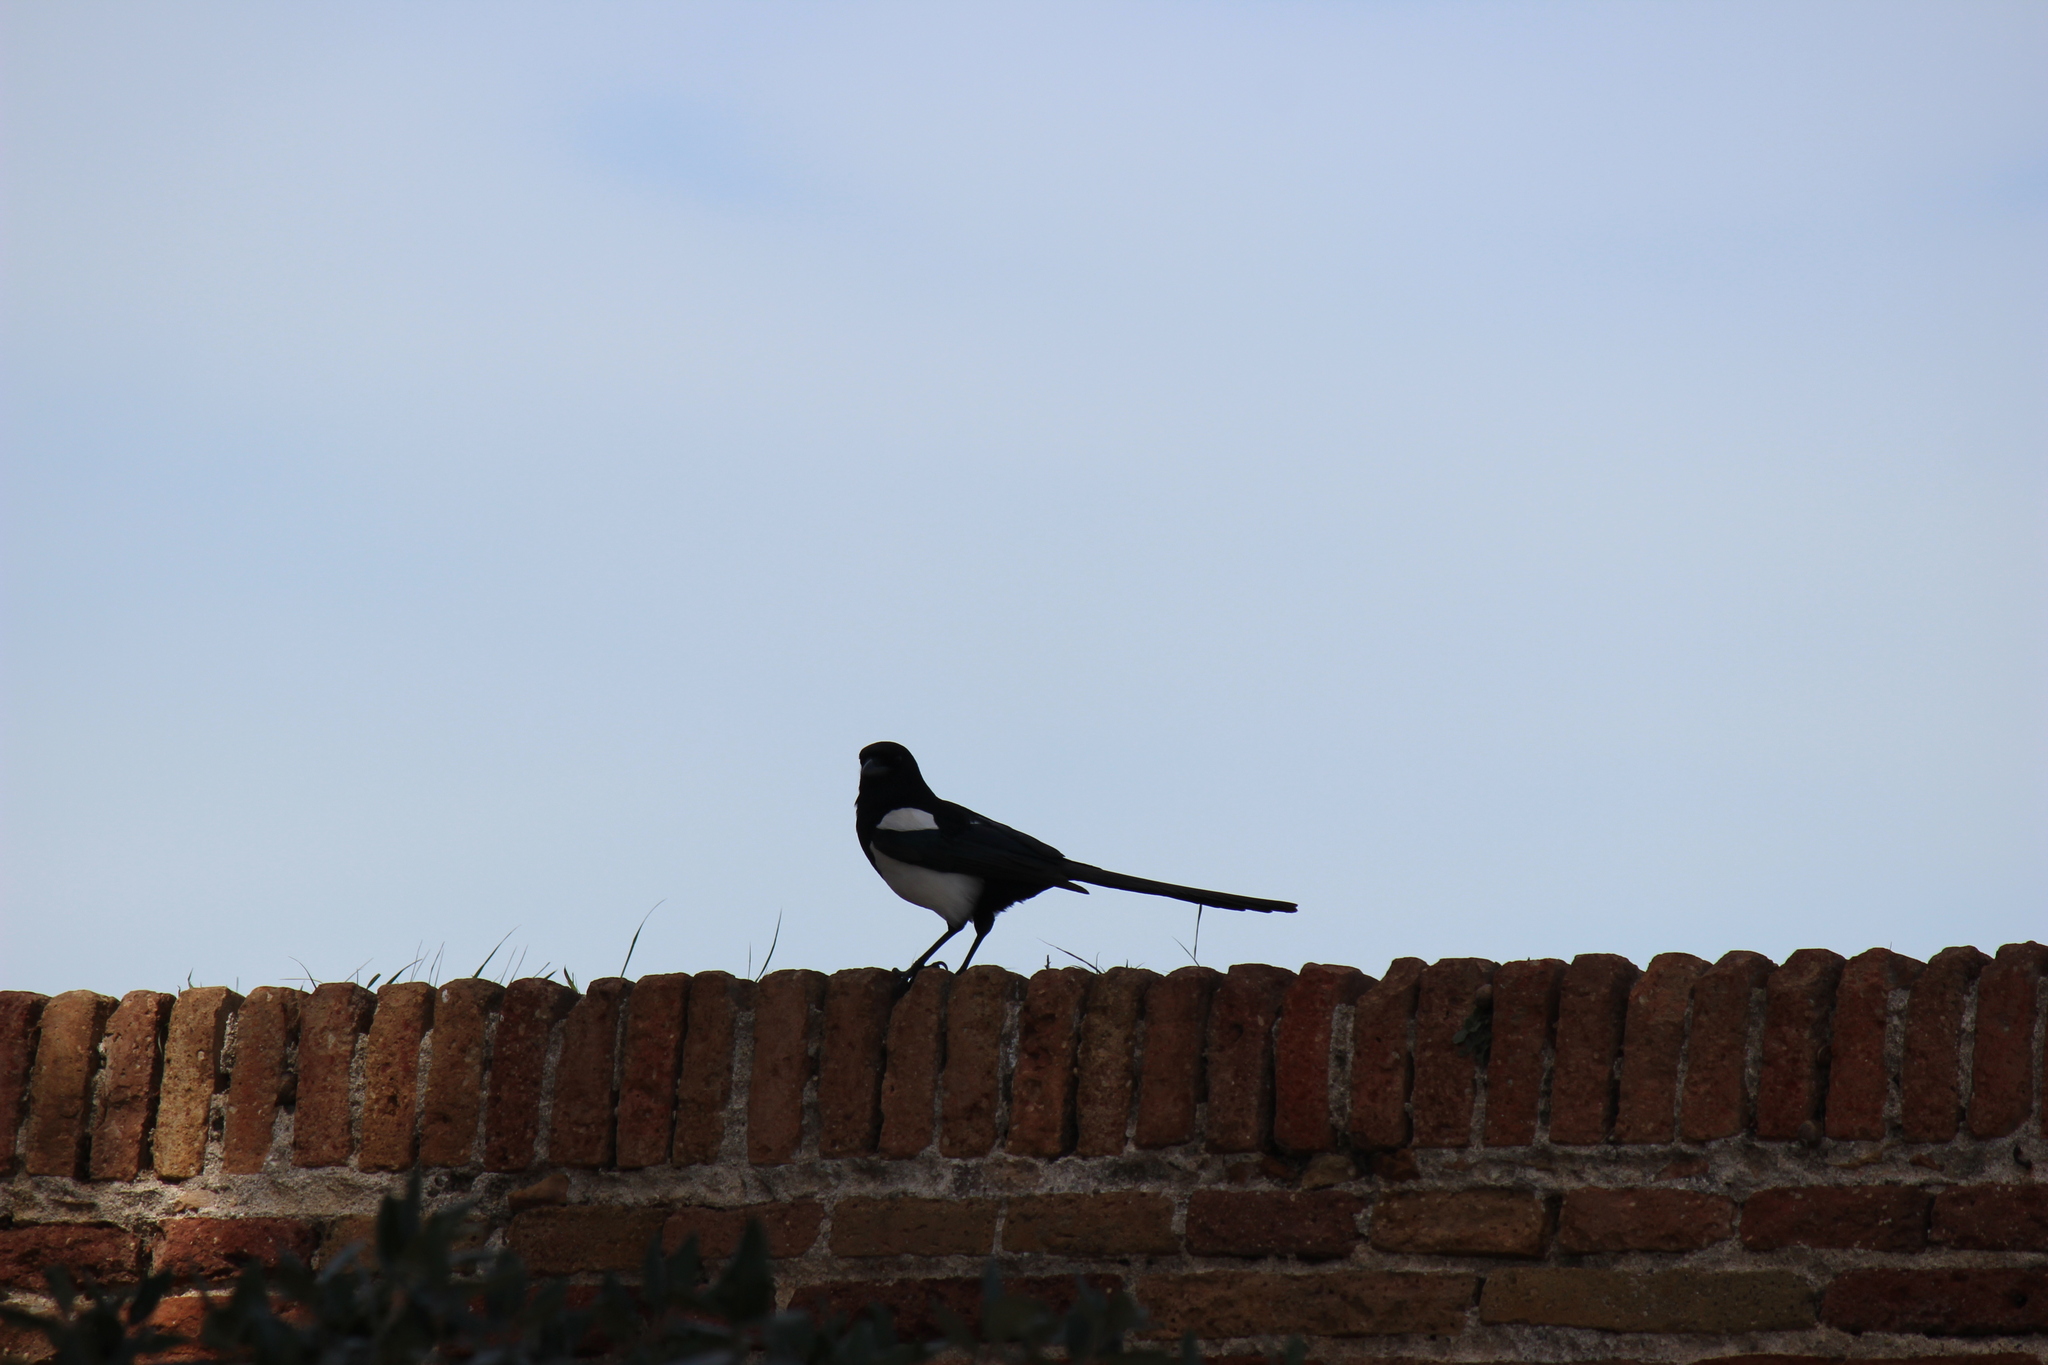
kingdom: Animalia
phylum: Chordata
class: Aves
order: Passeriformes
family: Corvidae
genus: Pica
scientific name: Pica pica
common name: Eurasian magpie
